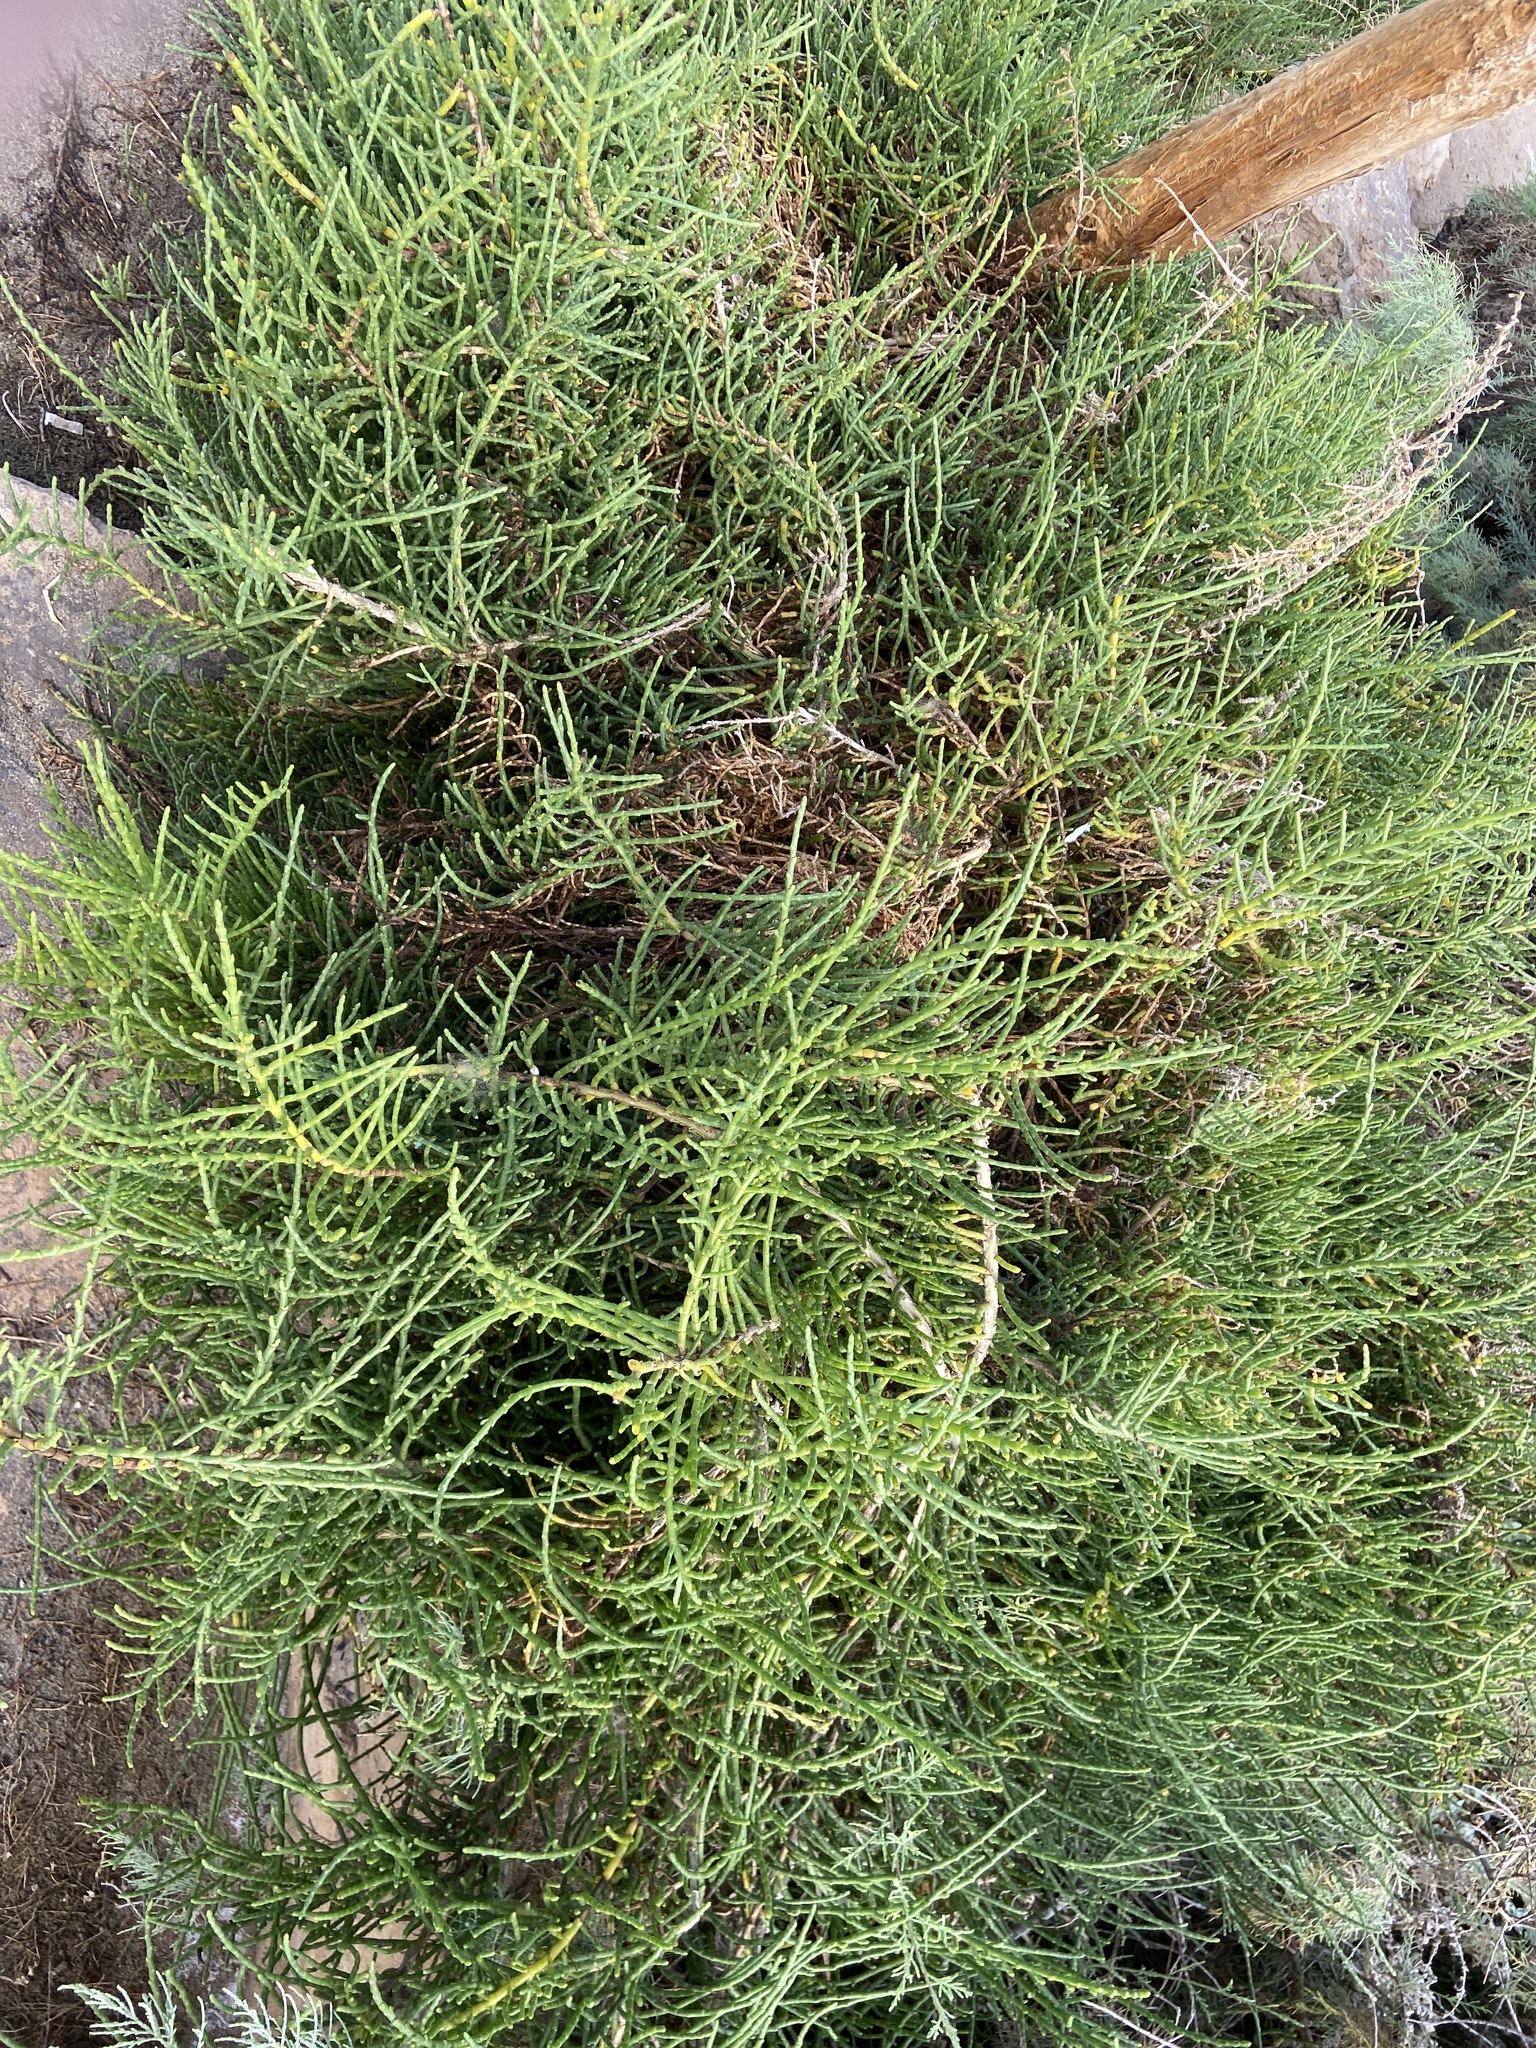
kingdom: Plantae
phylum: Tracheophyta
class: Magnoliopsida
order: Caryophyllales
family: Amaranthaceae
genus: Arthrocaulon
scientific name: Arthrocaulon macrostachyum
